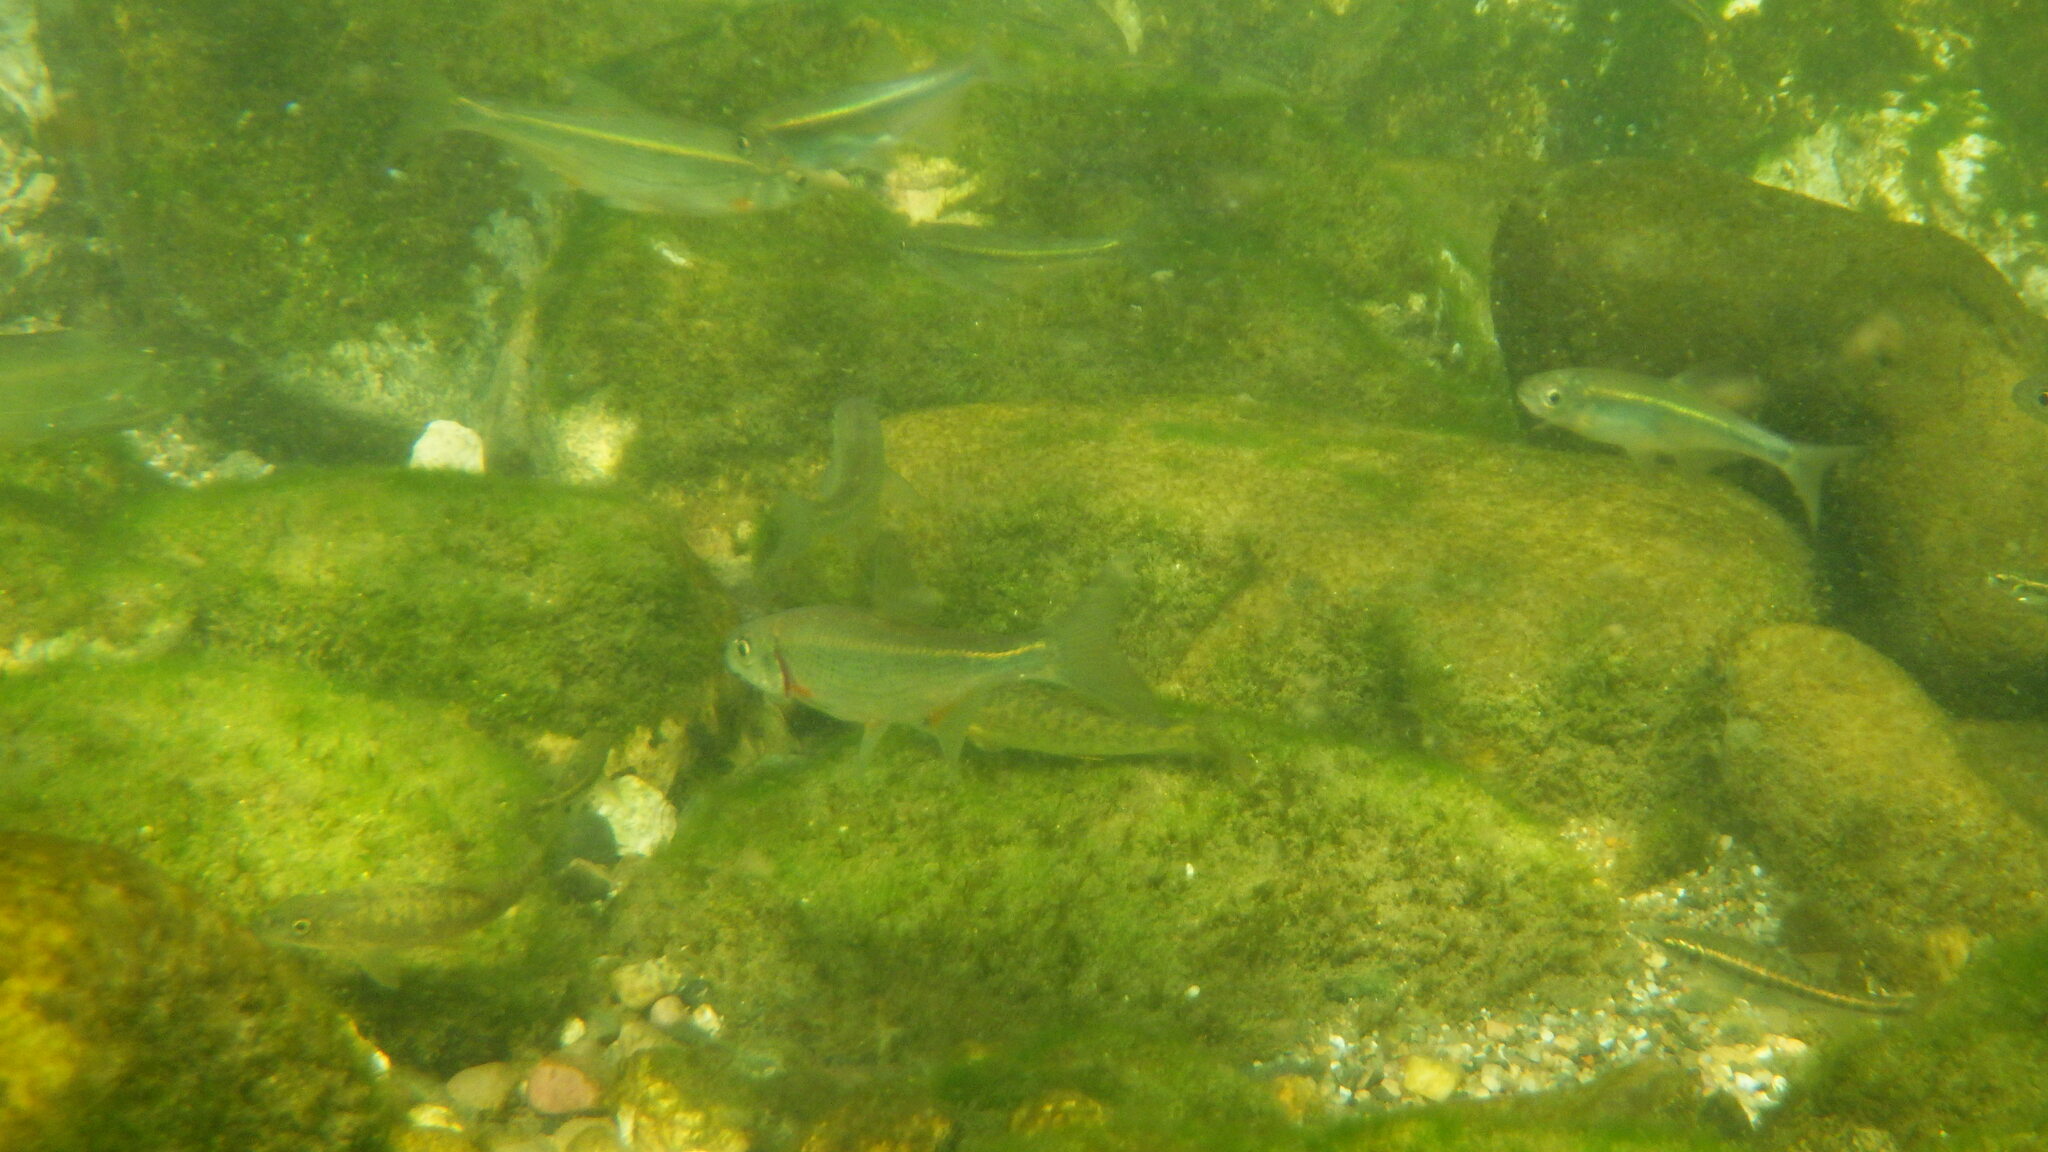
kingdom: Animalia
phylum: Chordata
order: Cypriniformes
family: Cyprinidae
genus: Alburnoides
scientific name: Alburnoides bipunctatus
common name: Spirlin
